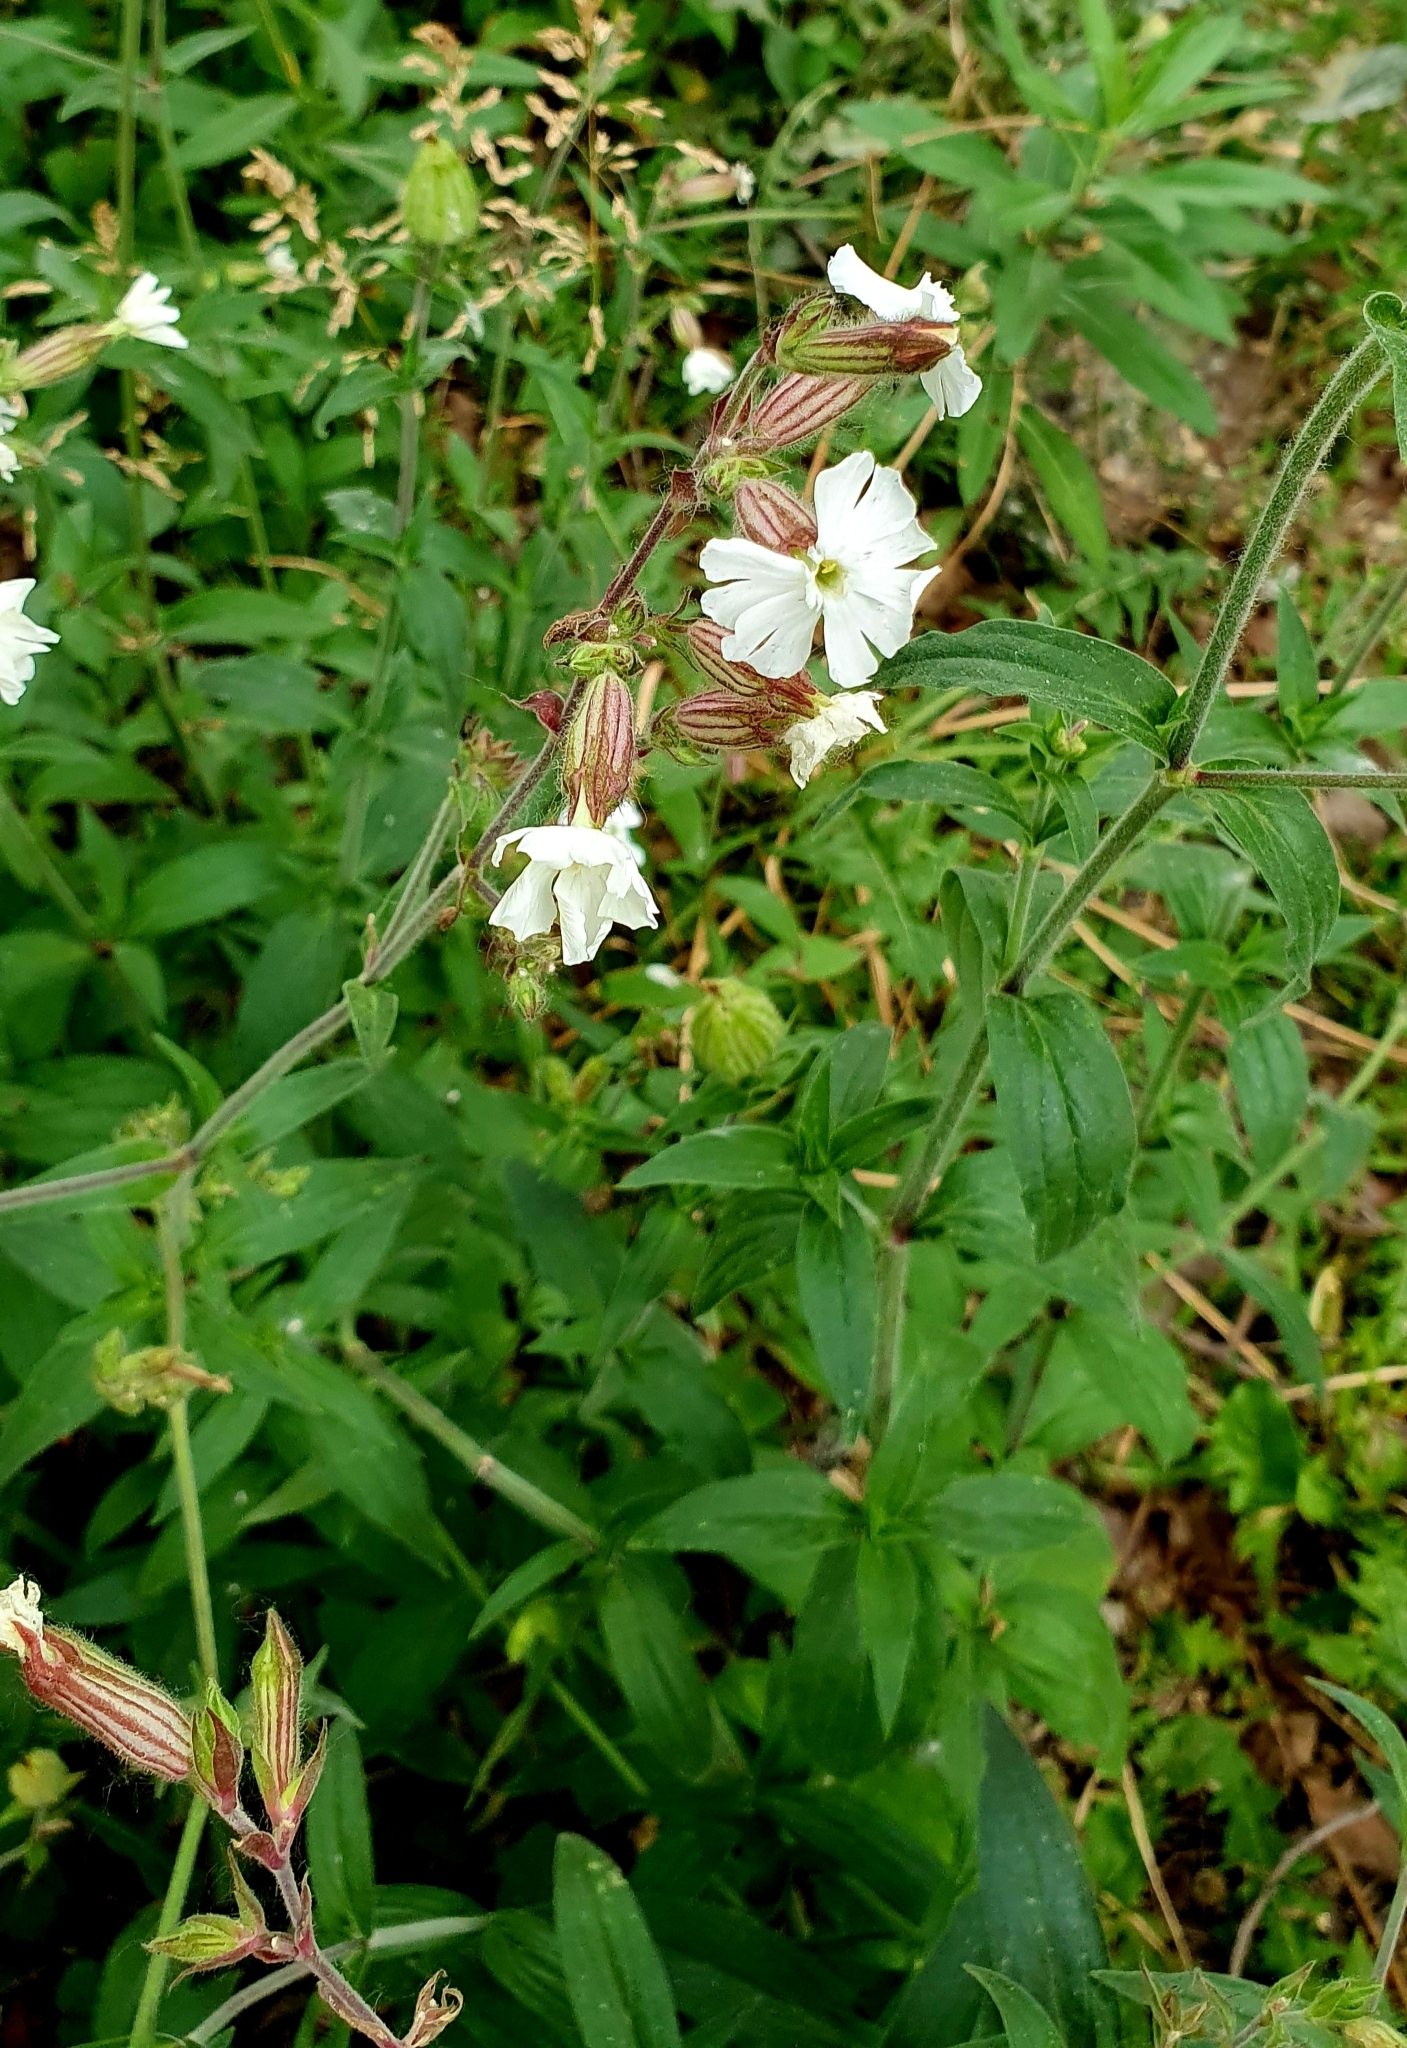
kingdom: Plantae
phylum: Tracheophyta
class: Magnoliopsida
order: Caryophyllales
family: Caryophyllaceae
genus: Silene
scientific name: Silene latifolia
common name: White campion
